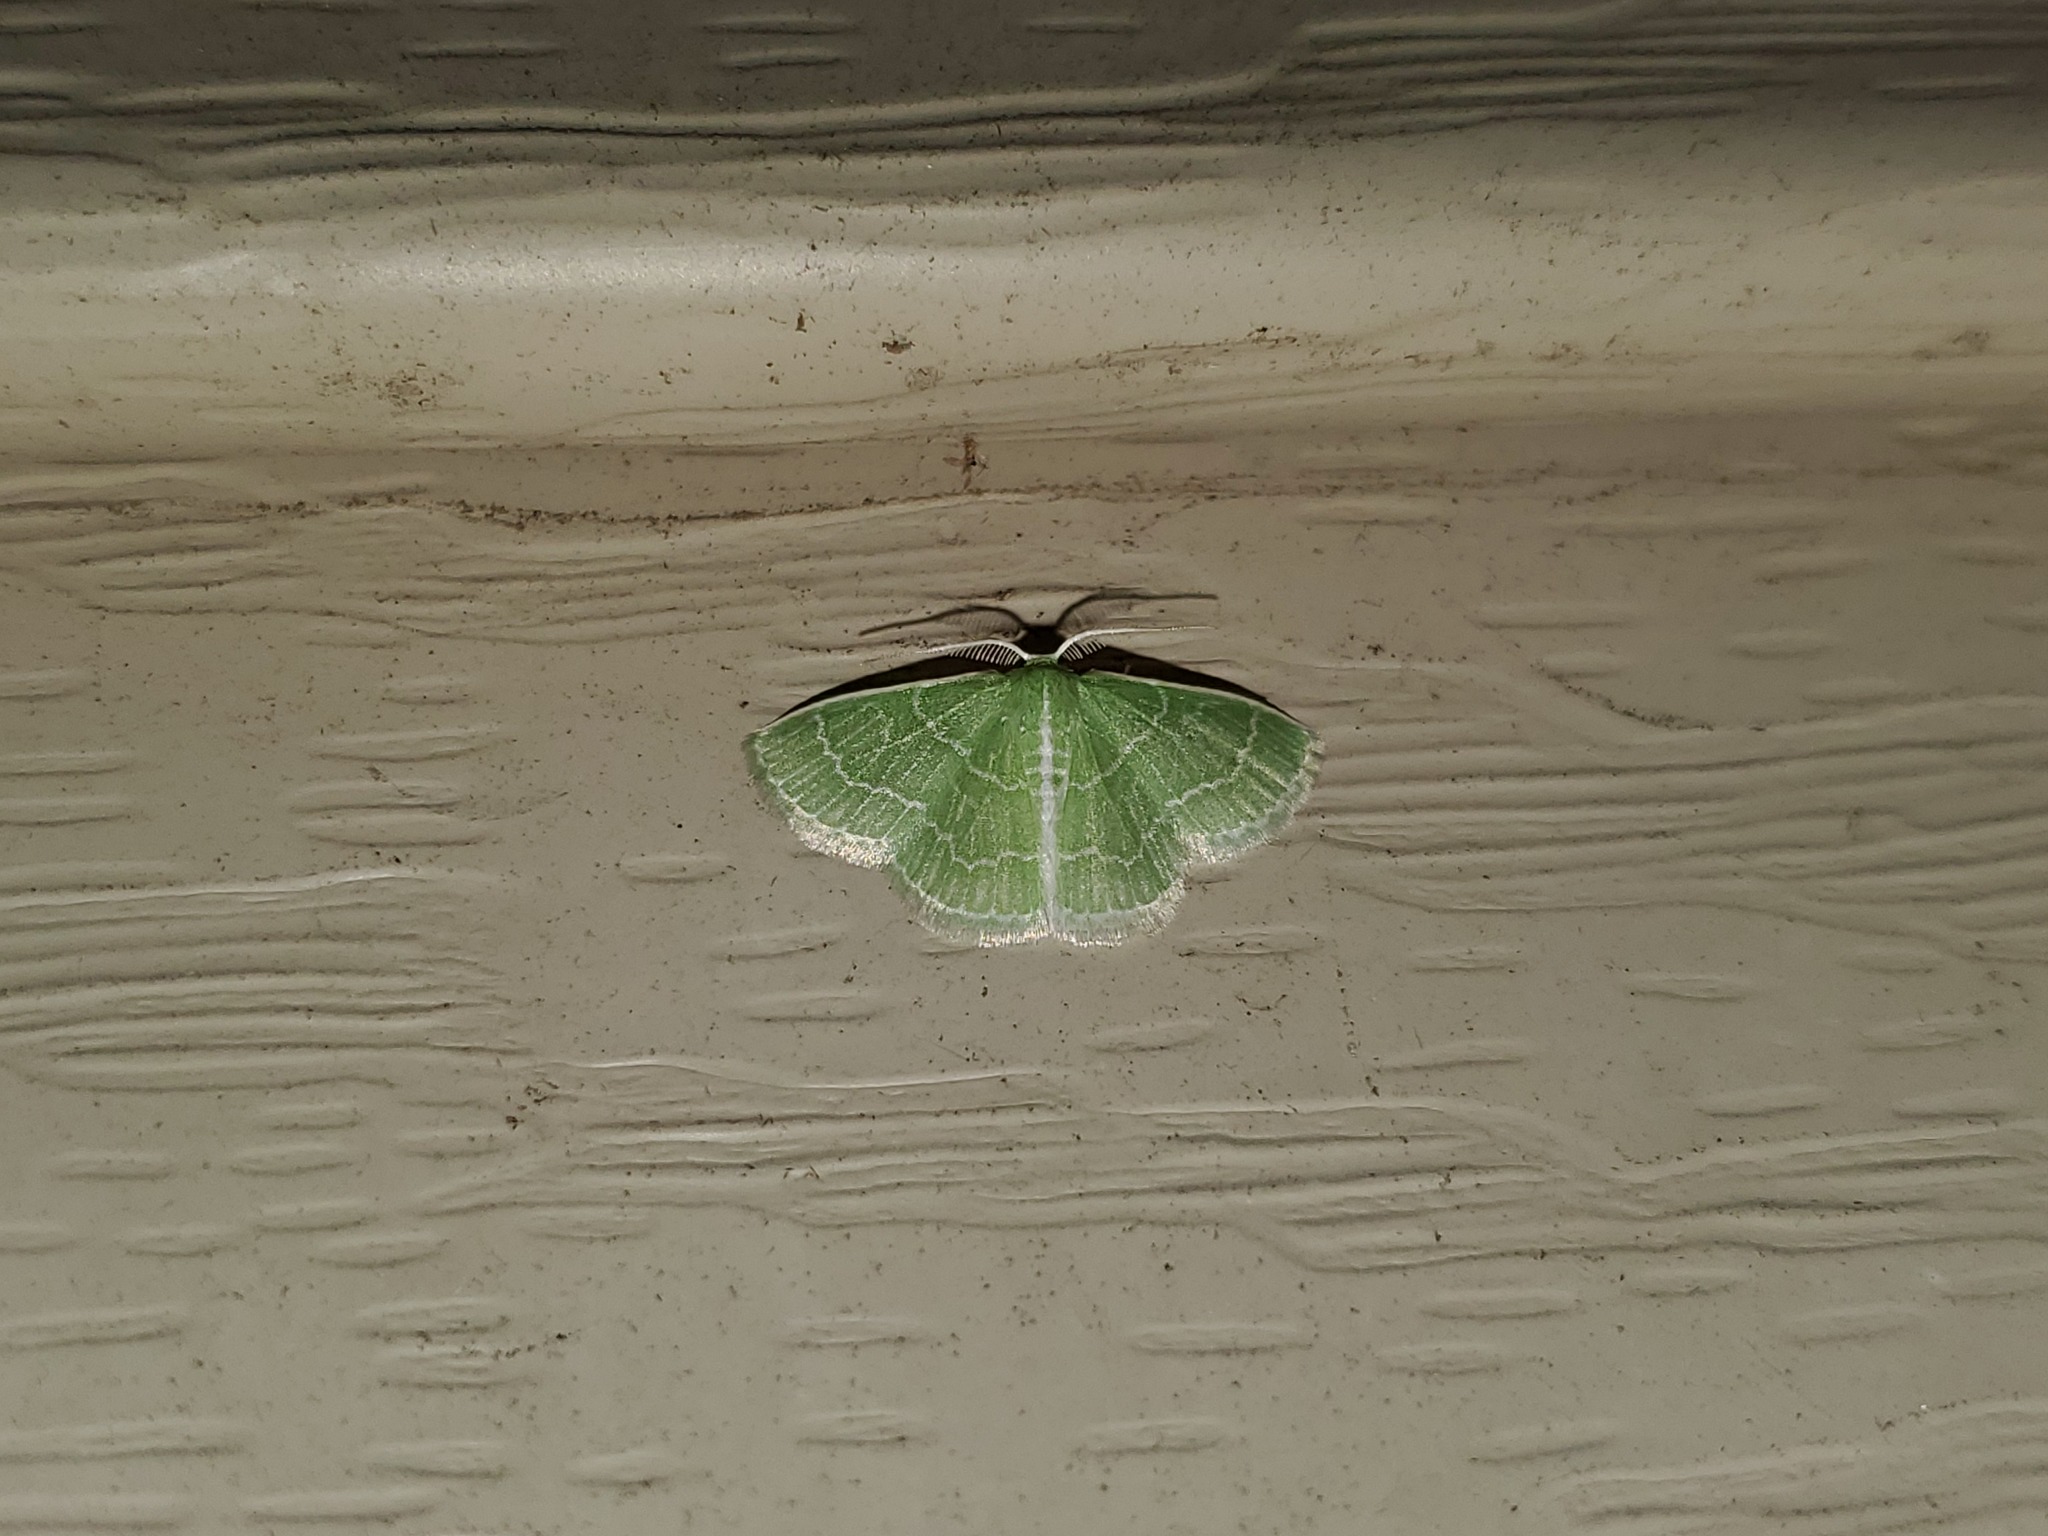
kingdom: Animalia
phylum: Arthropoda
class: Insecta
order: Lepidoptera
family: Geometridae
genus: Synchlora
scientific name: Synchlora aerata
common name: Wavy-lined emerald
